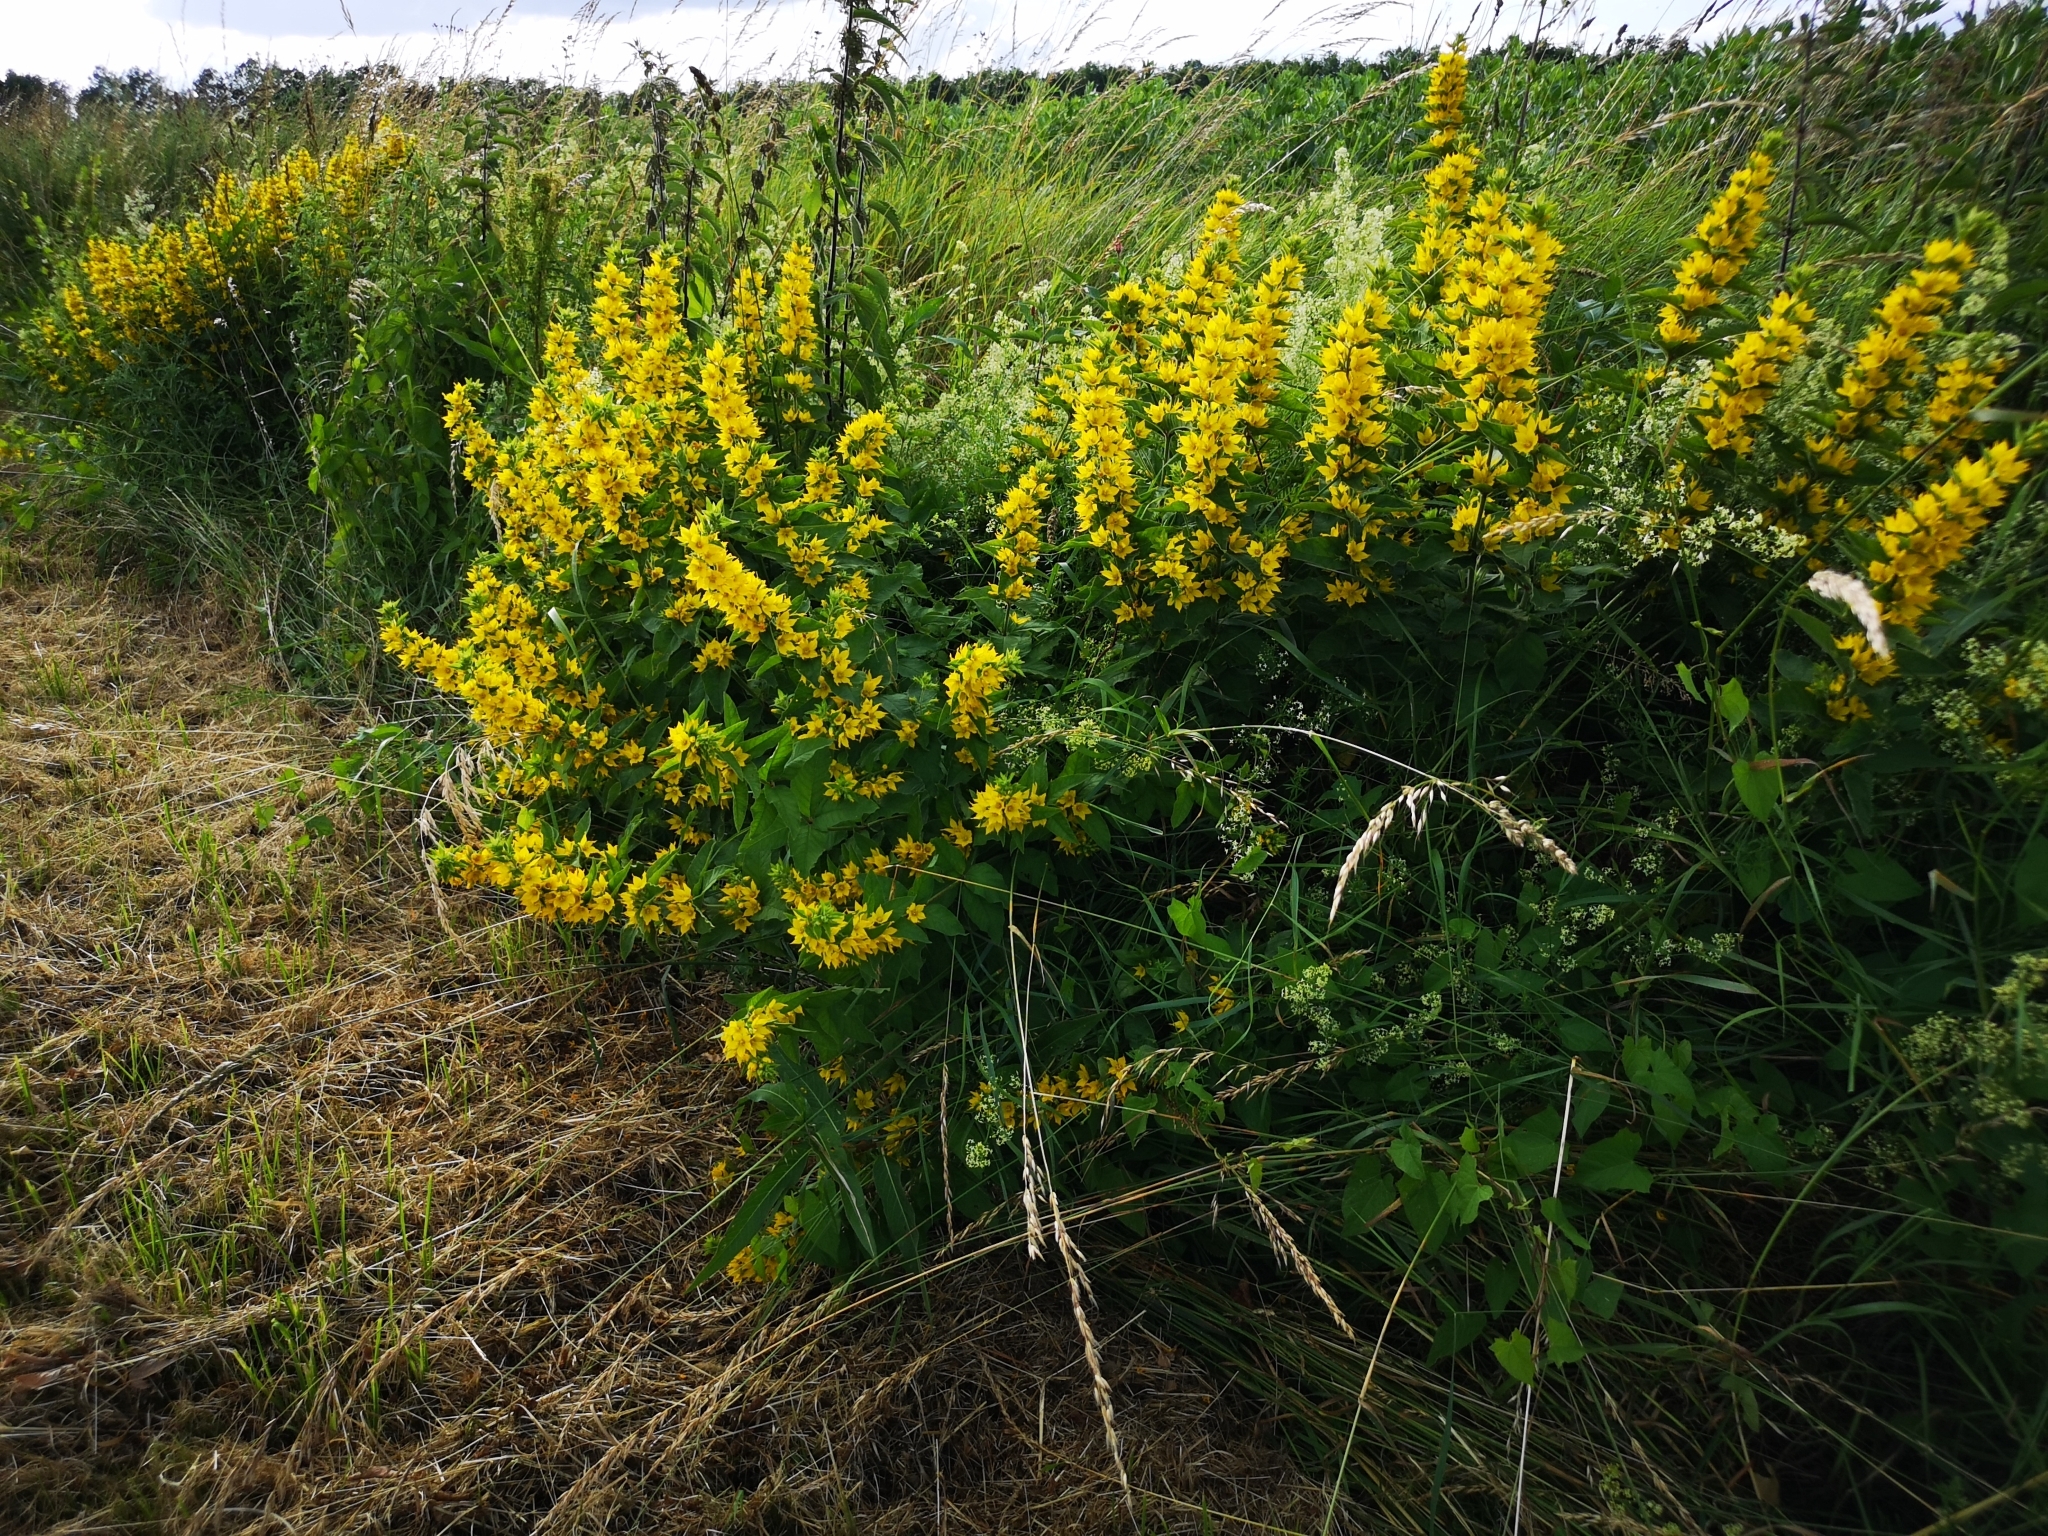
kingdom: Plantae
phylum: Tracheophyta
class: Magnoliopsida
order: Ericales
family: Primulaceae
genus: Lysimachia
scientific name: Lysimachia punctata
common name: Dotted loosestrife
